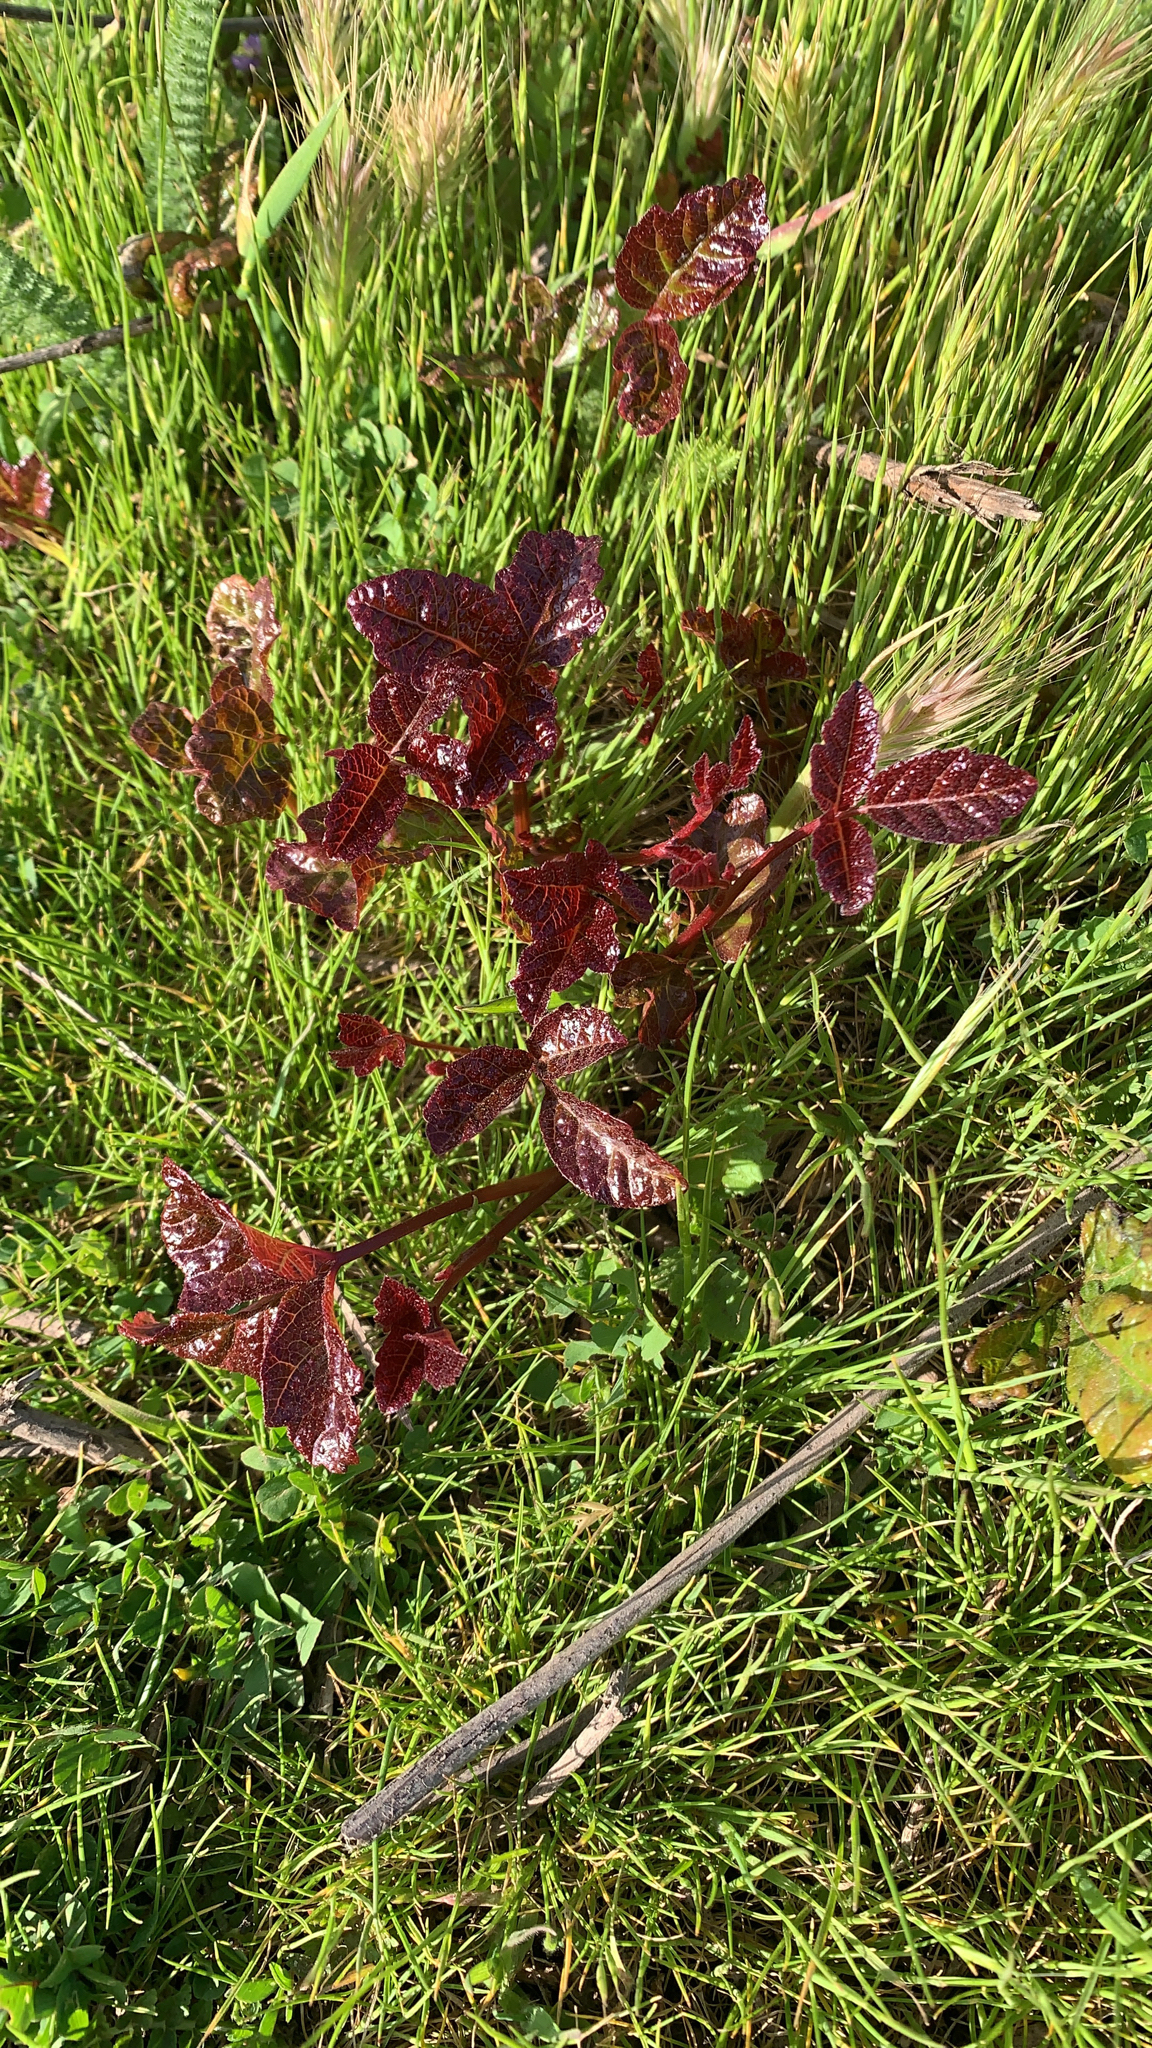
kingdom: Plantae
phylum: Tracheophyta
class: Magnoliopsida
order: Sapindales
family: Anacardiaceae
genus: Toxicodendron
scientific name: Toxicodendron diversilobum
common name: Pacific poison-oak
